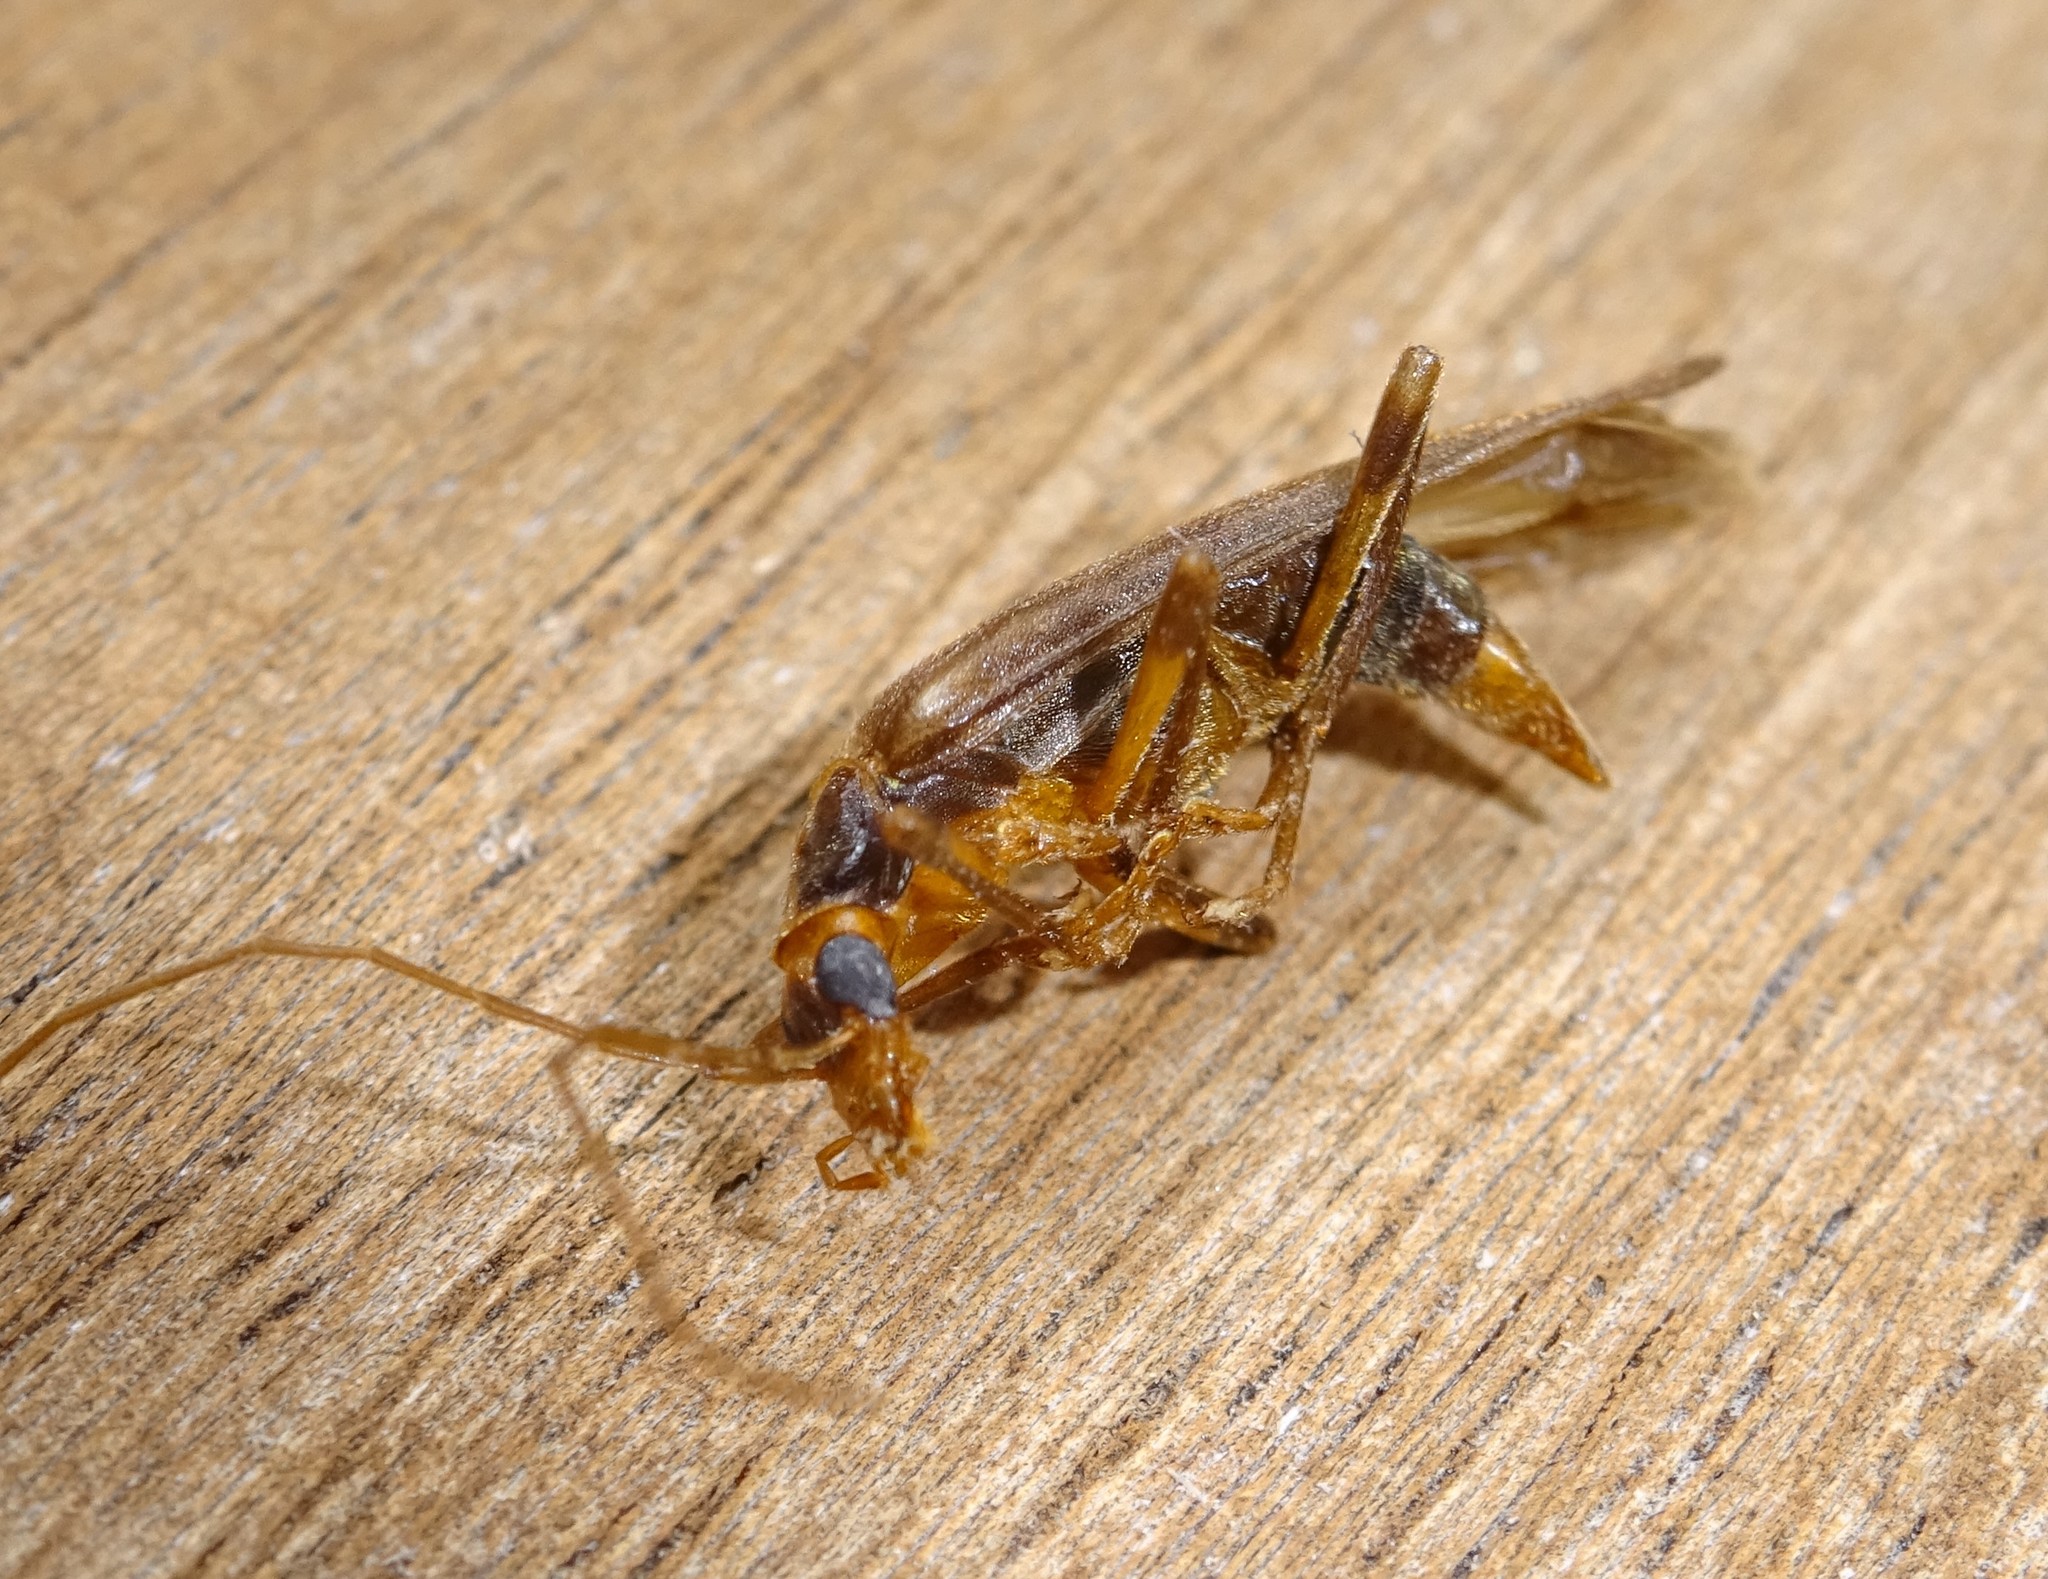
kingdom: Animalia
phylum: Arthropoda
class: Insecta
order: Coleoptera
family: Oedemeridae
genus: Oedemera
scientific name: Oedemera femoralis
